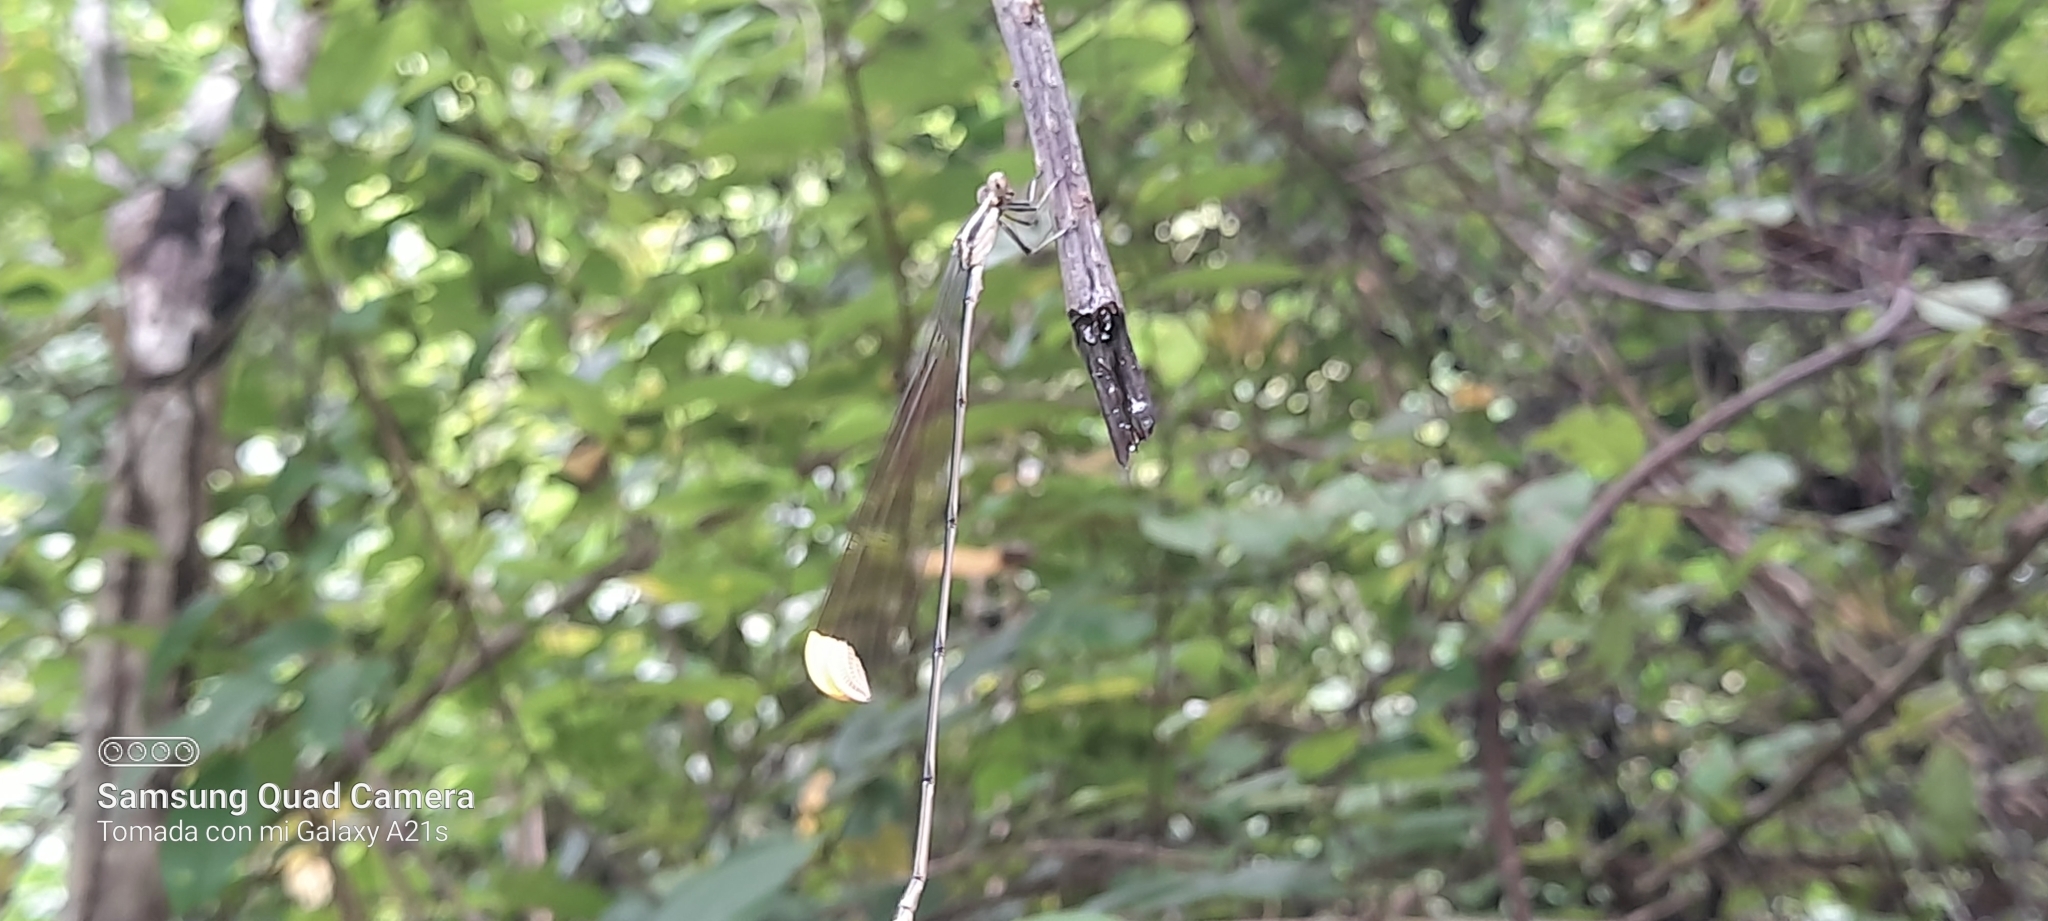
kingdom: Animalia
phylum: Arthropoda
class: Insecta
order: Odonata
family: Coenagrionidae
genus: Mecistogaster
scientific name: Mecistogaster ornata
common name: Ornate helicopter
